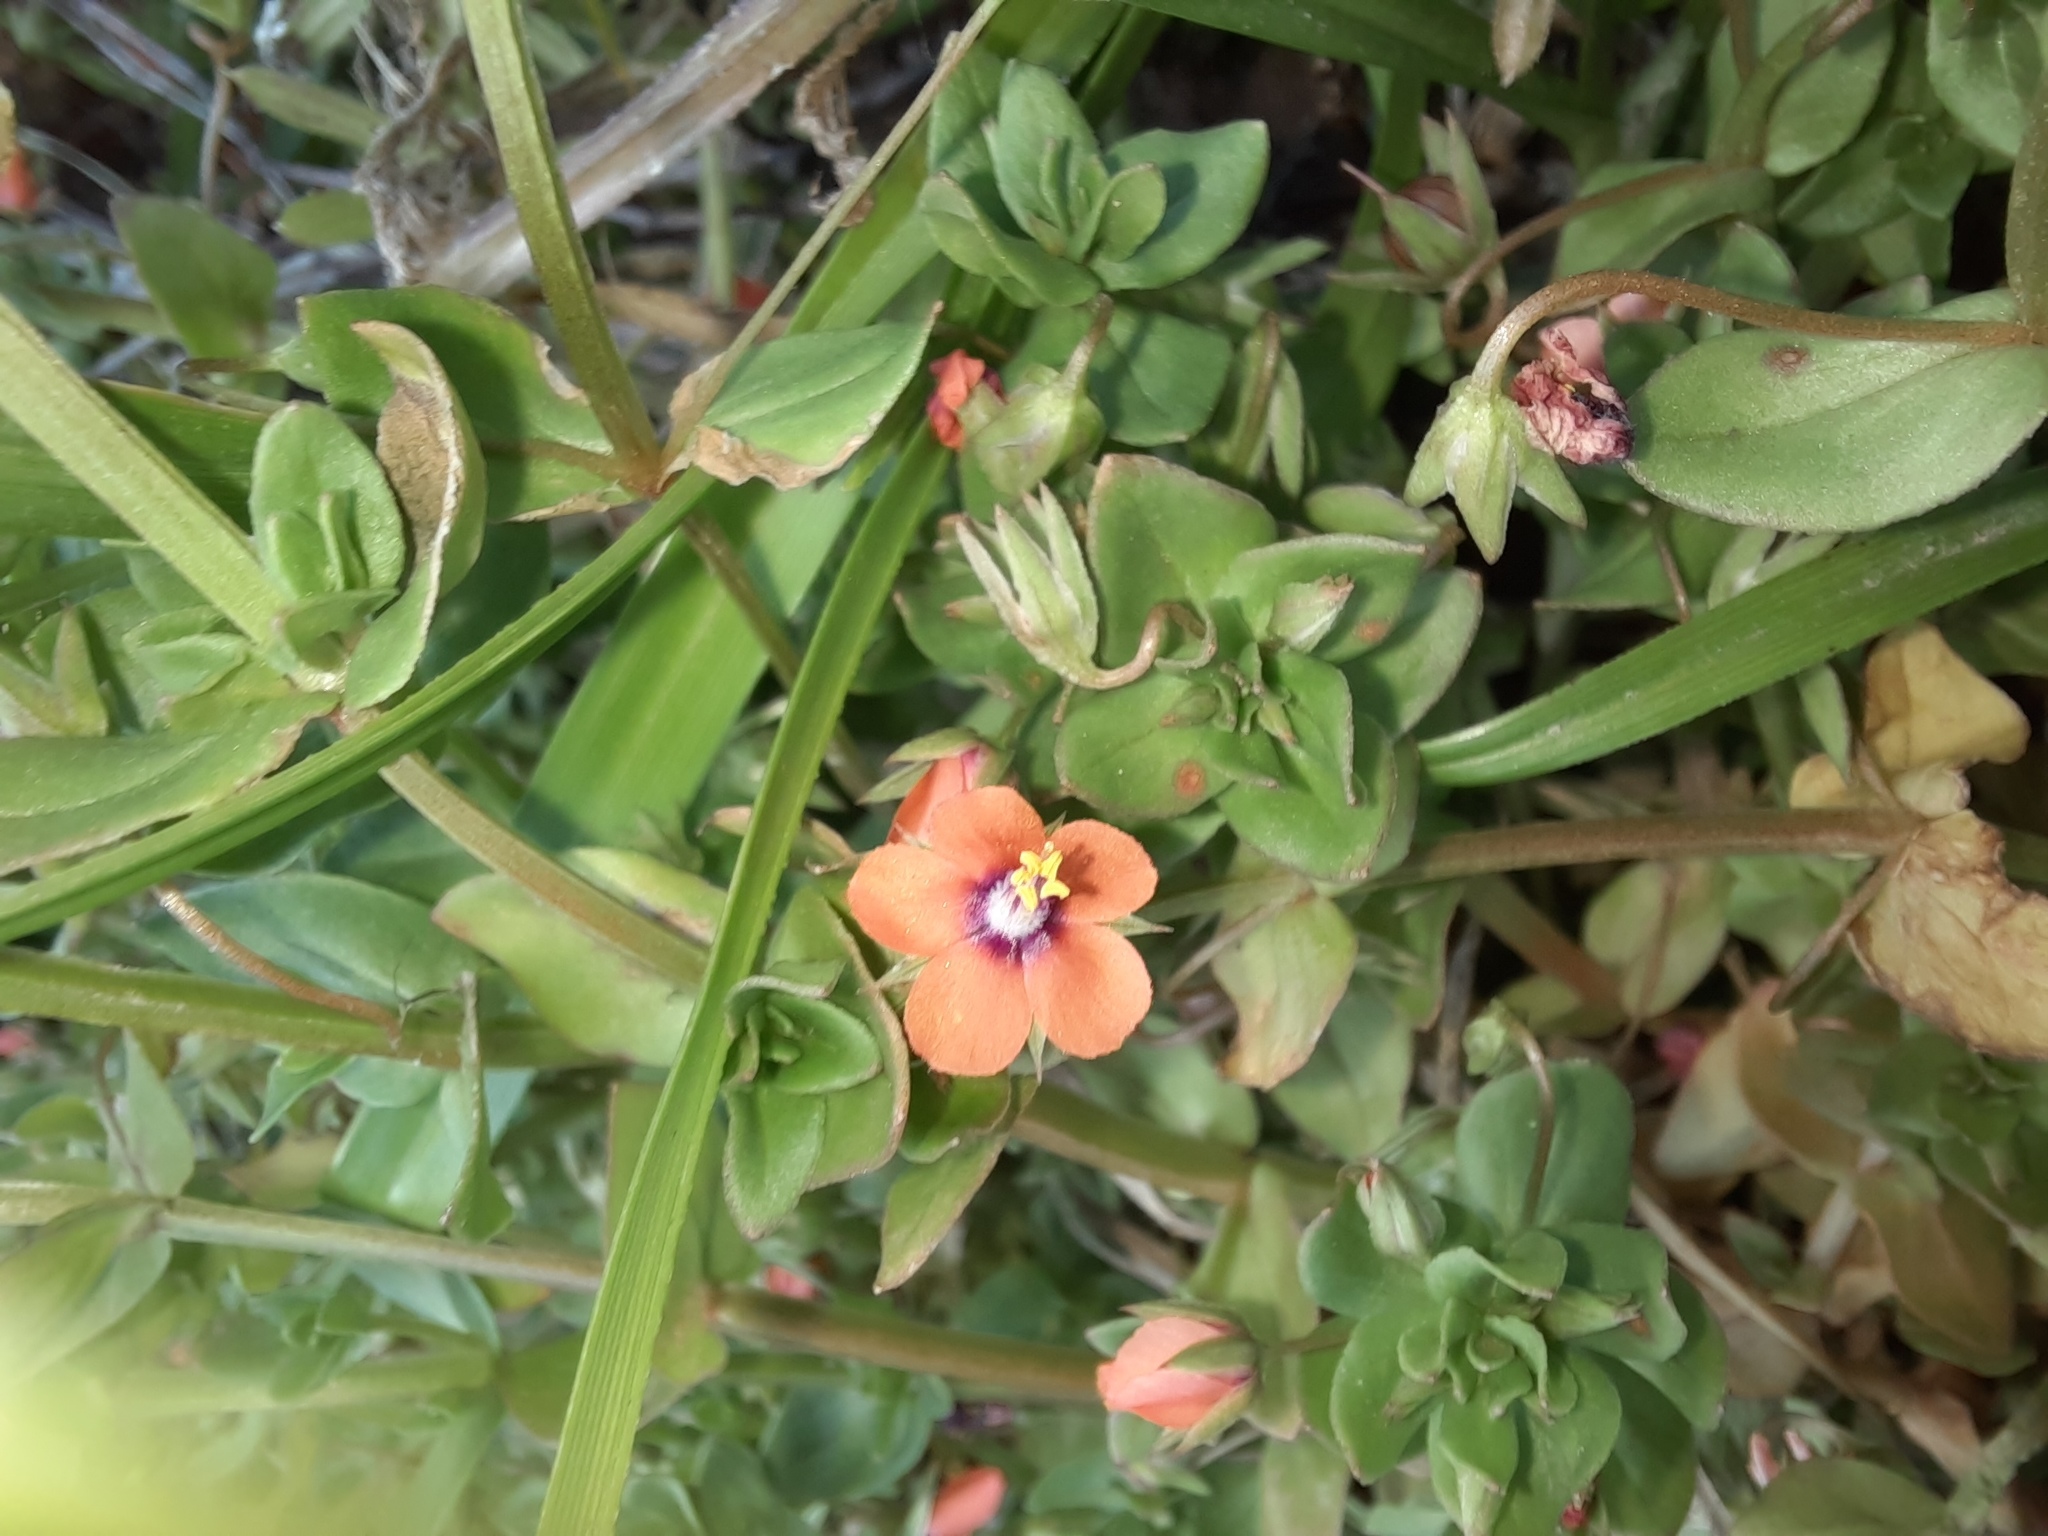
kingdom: Plantae
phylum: Tracheophyta
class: Magnoliopsida
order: Ericales
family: Primulaceae
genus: Lysimachia
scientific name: Lysimachia arvensis
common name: Scarlet pimpernel
